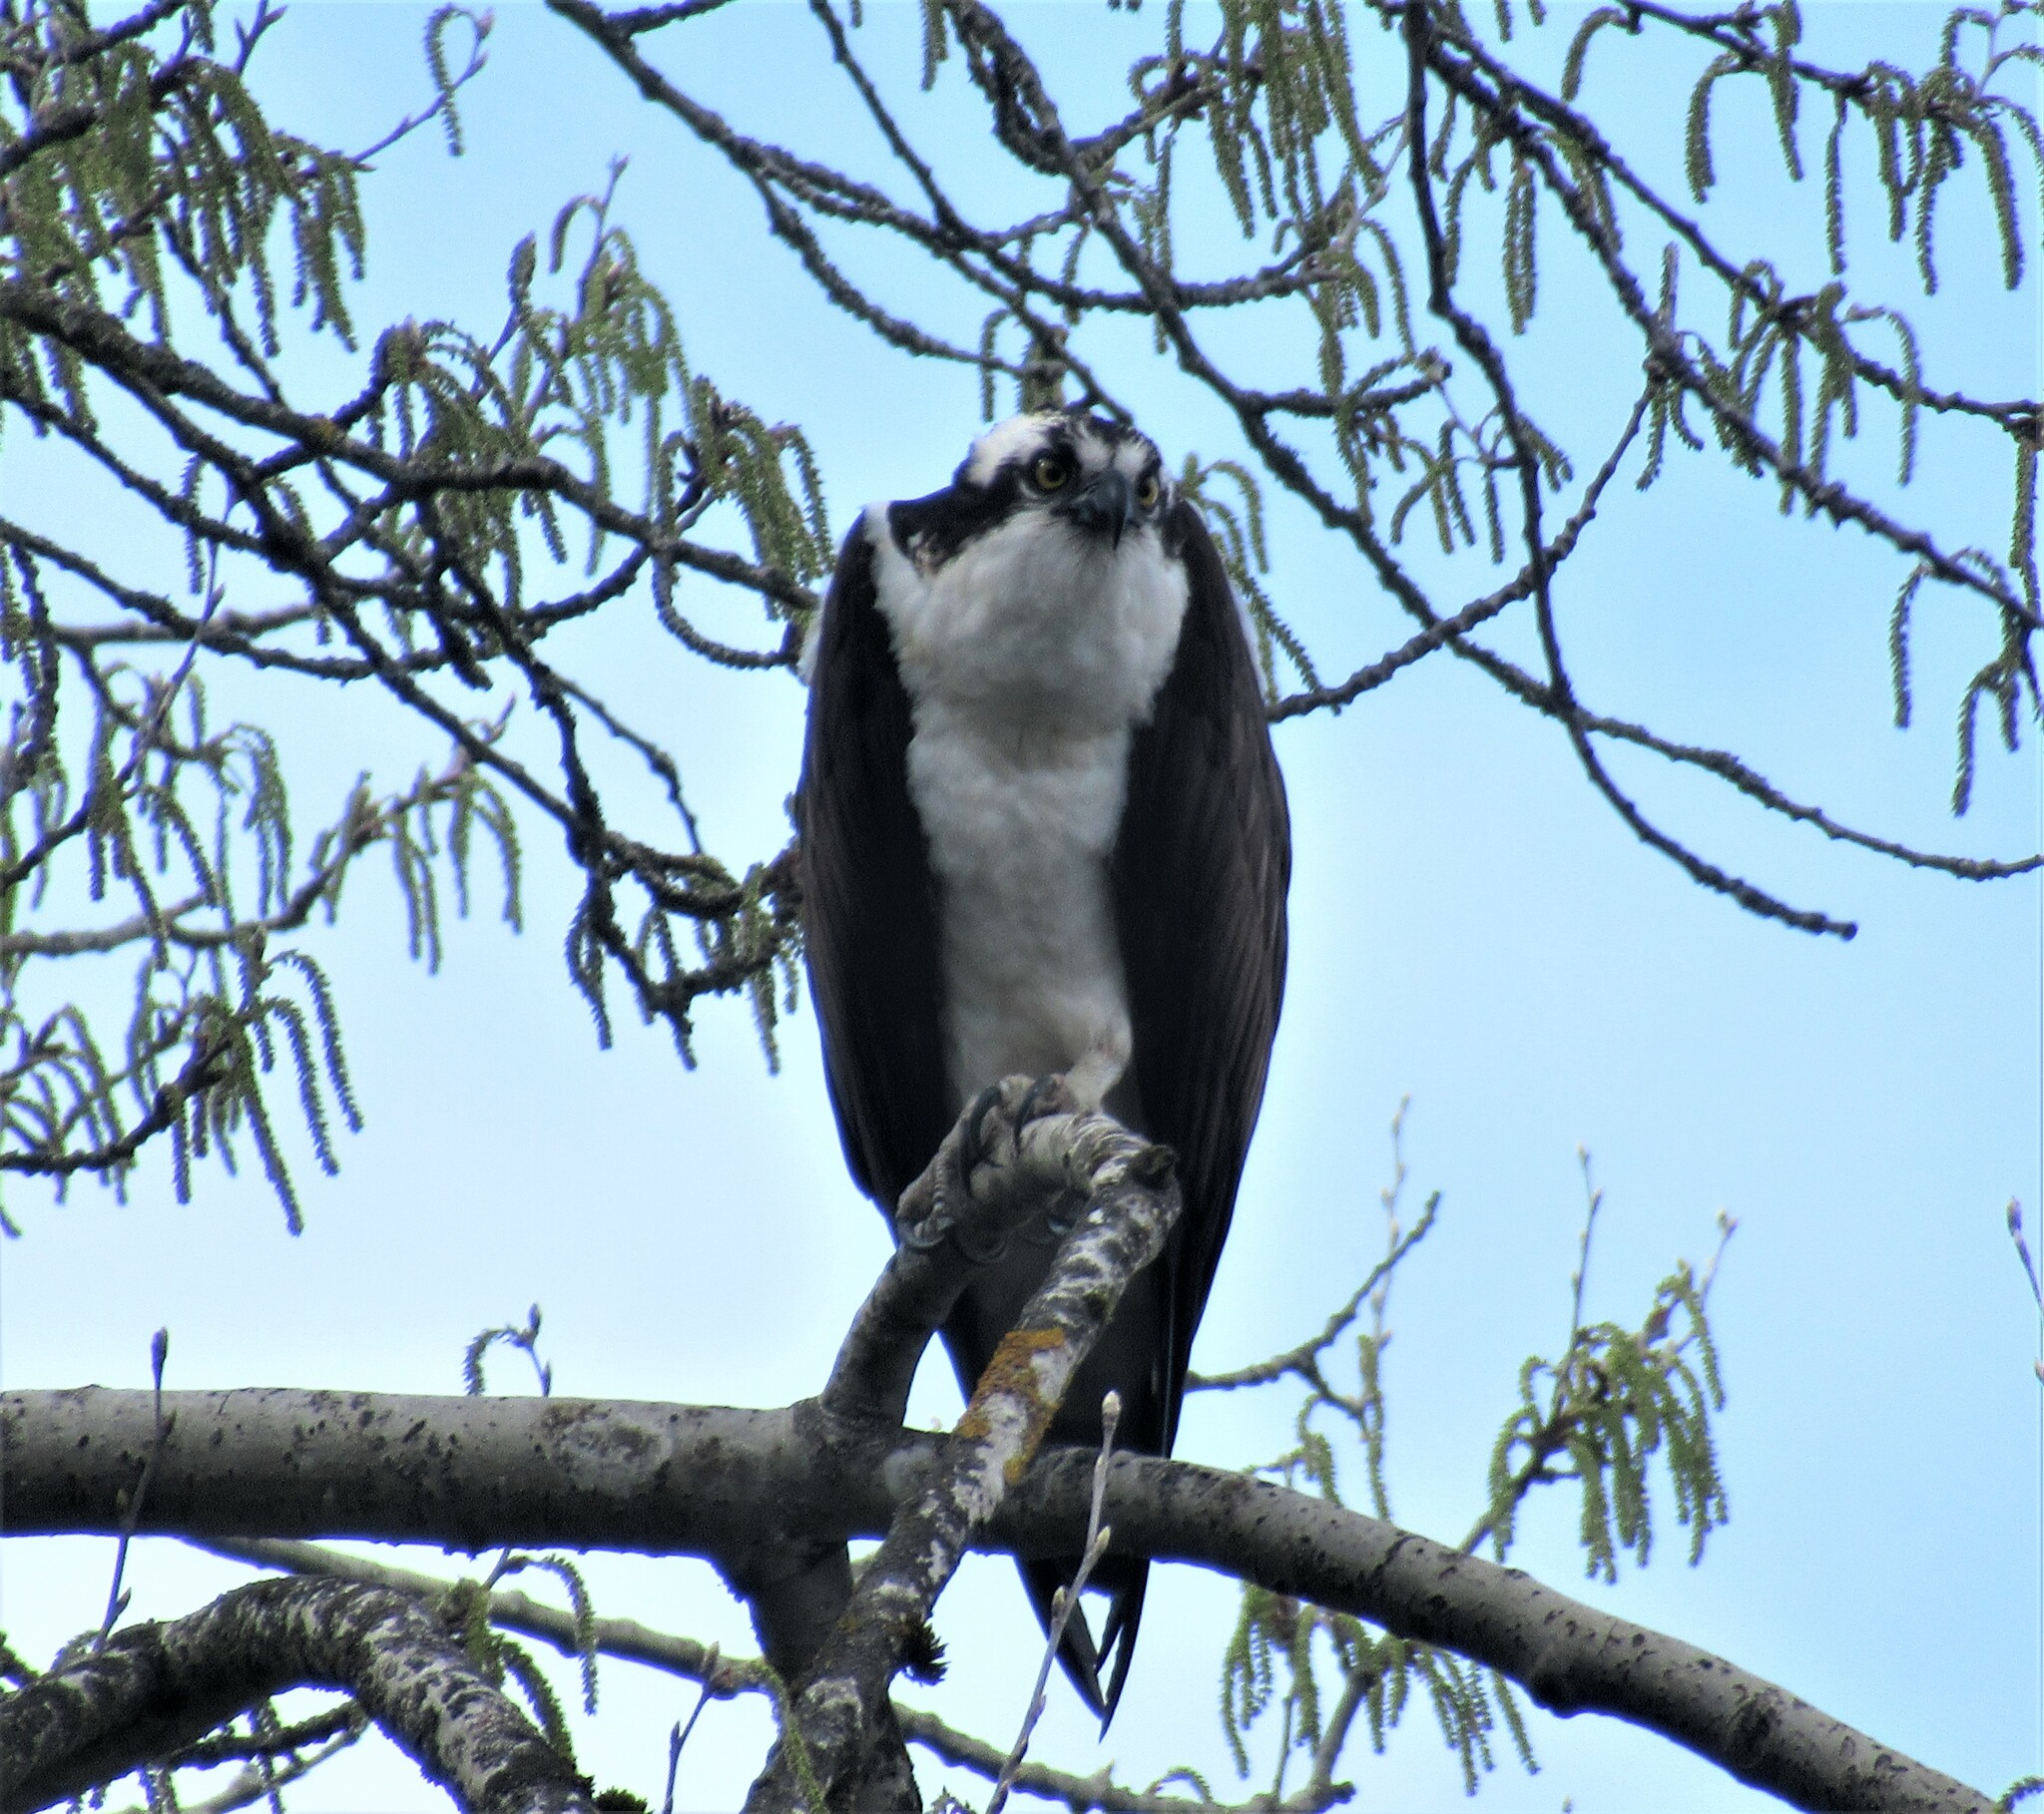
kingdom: Animalia
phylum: Chordata
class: Aves
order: Accipitriformes
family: Pandionidae
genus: Pandion
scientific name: Pandion haliaetus
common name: Osprey
